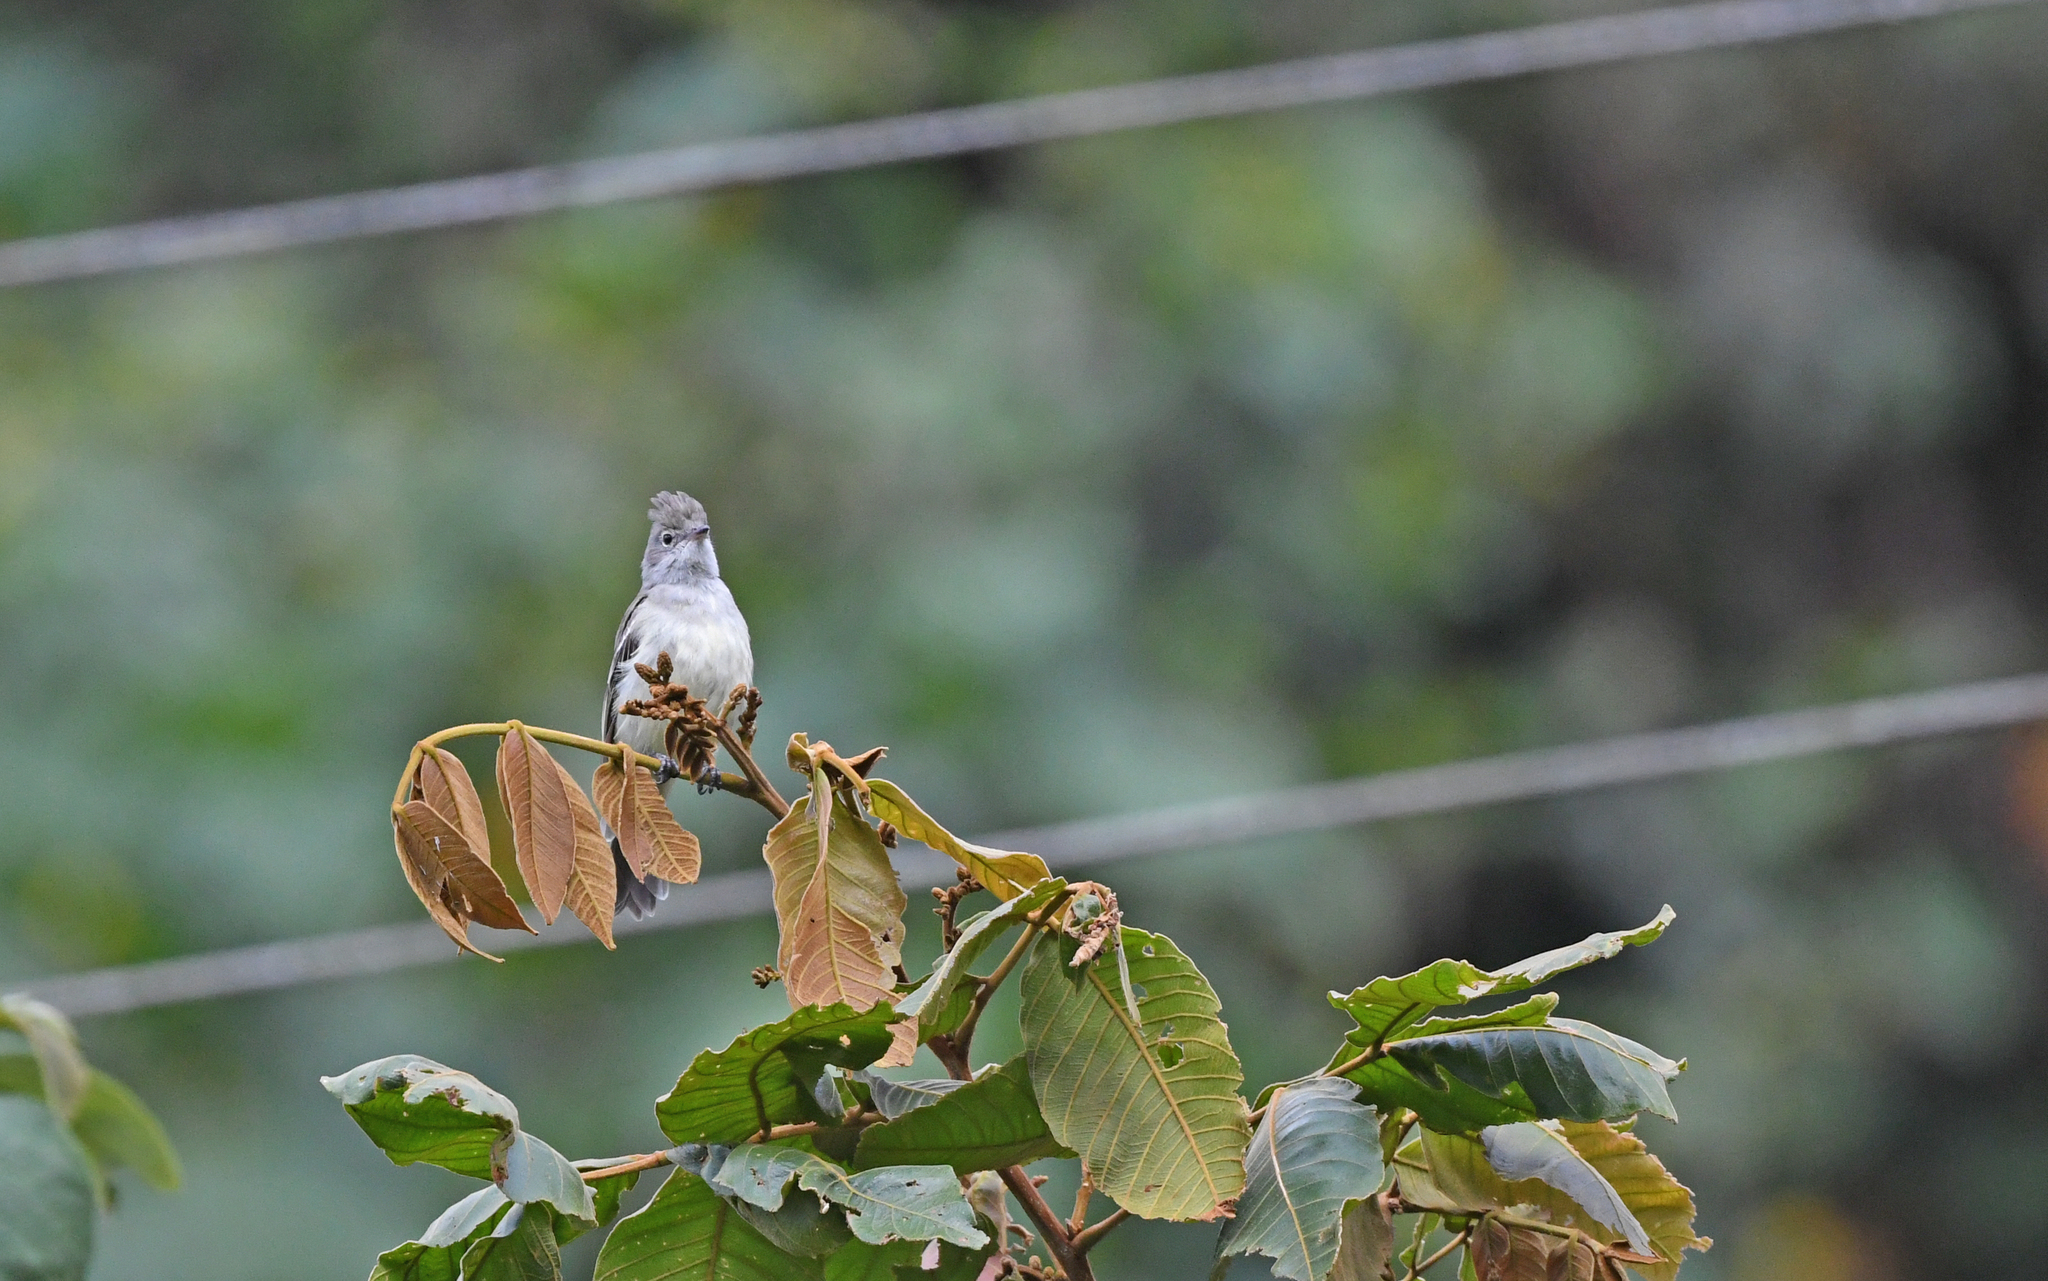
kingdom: Animalia
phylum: Chordata
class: Aves
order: Passeriformes
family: Tyrannidae
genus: Elaenia
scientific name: Elaenia flavogaster
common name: Yellow-bellied elaenia
